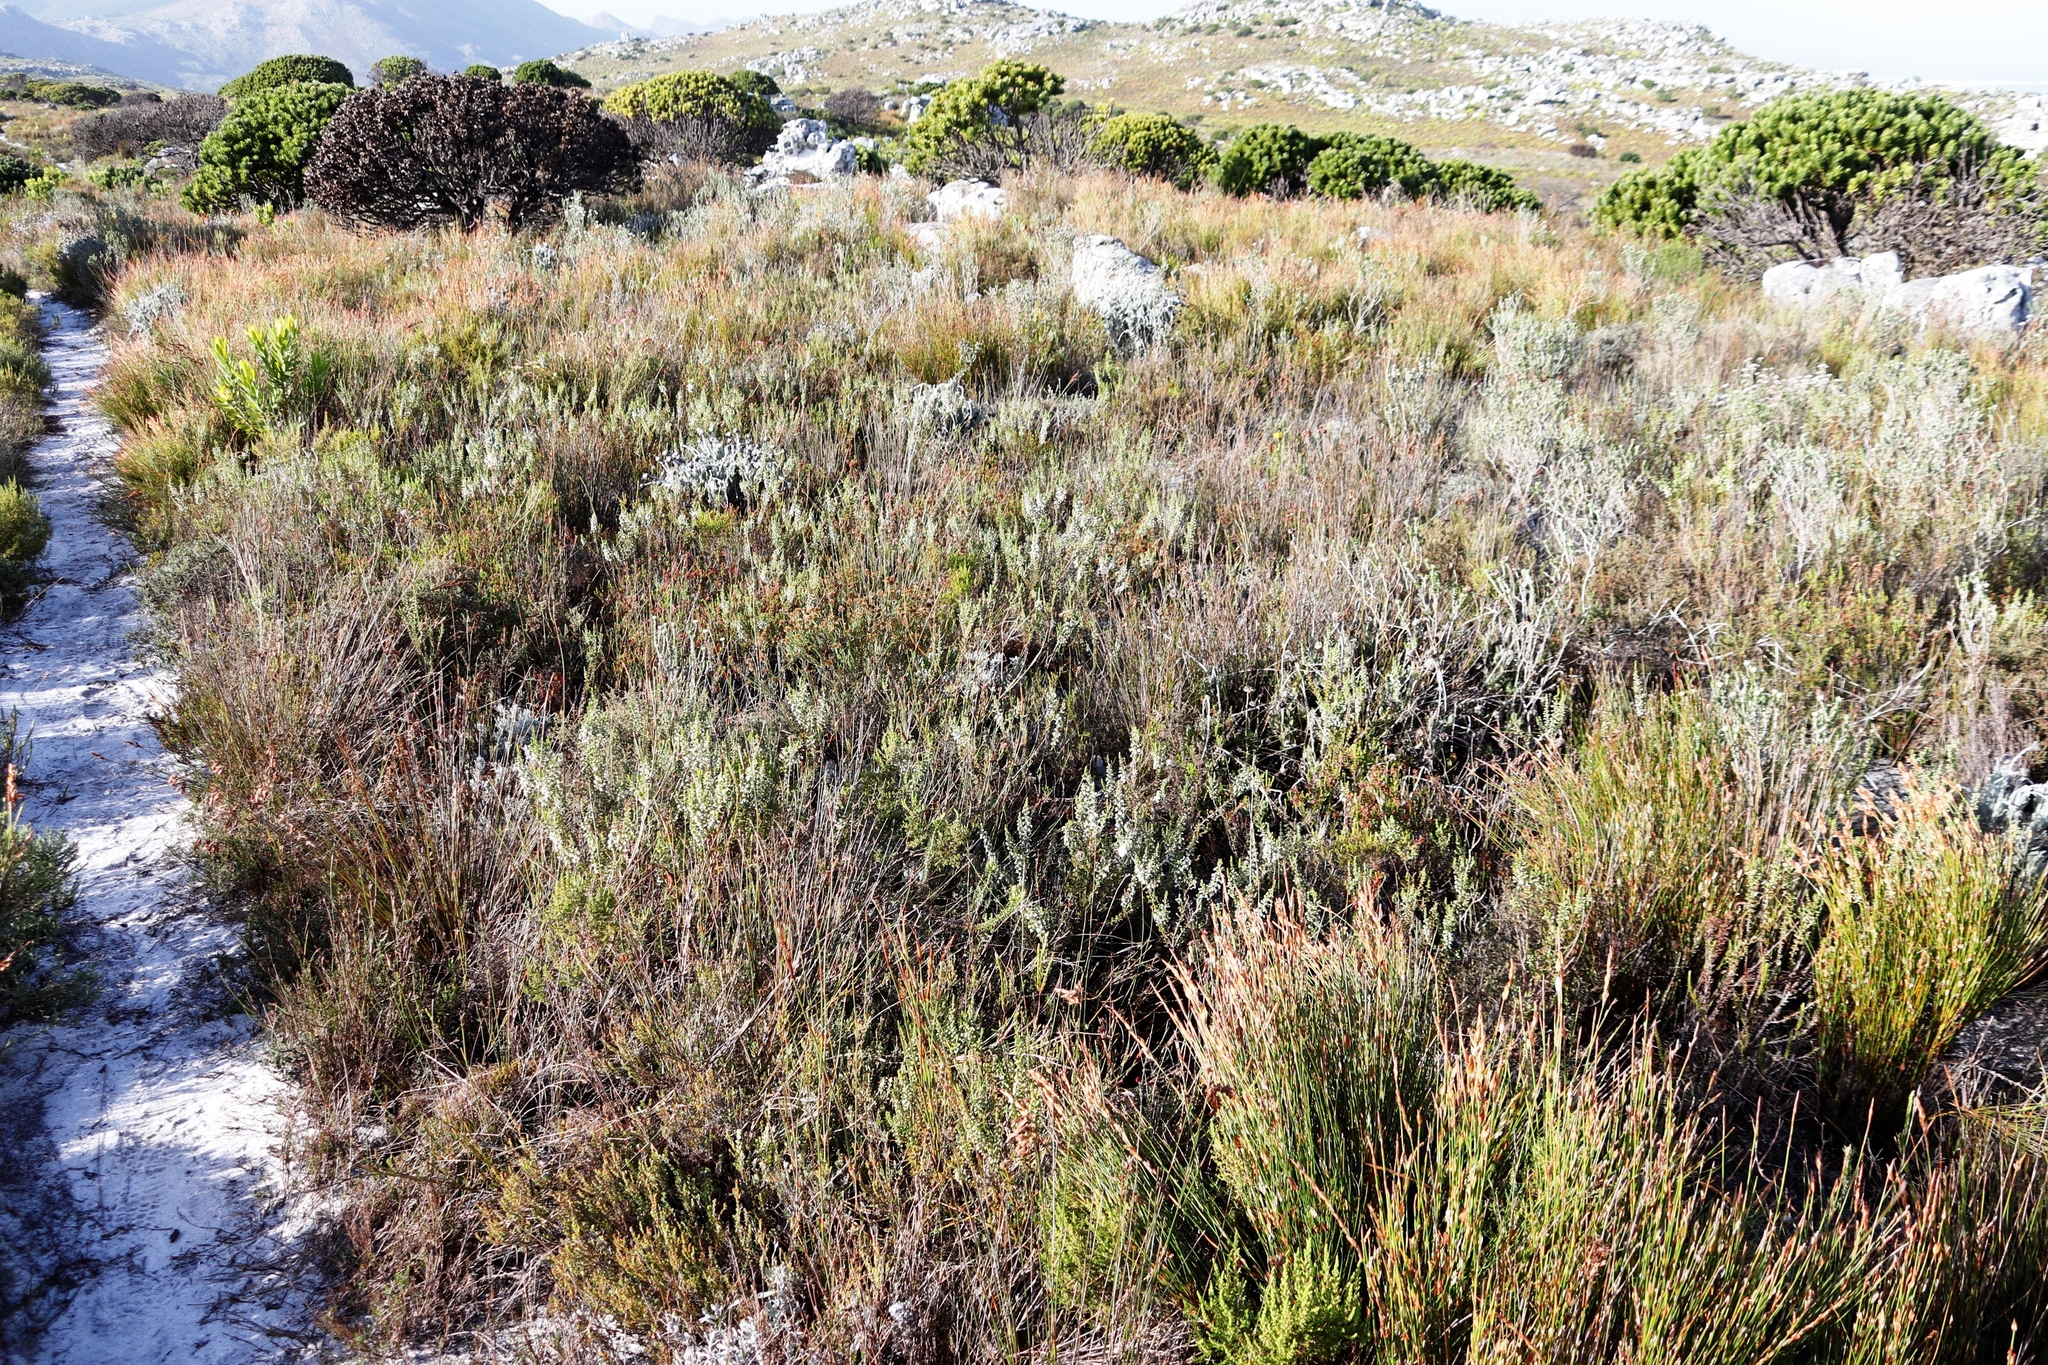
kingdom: Plantae
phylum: Tracheophyta
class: Magnoliopsida
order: Ericales
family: Ericaceae
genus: Erica
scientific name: Erica imbricata
